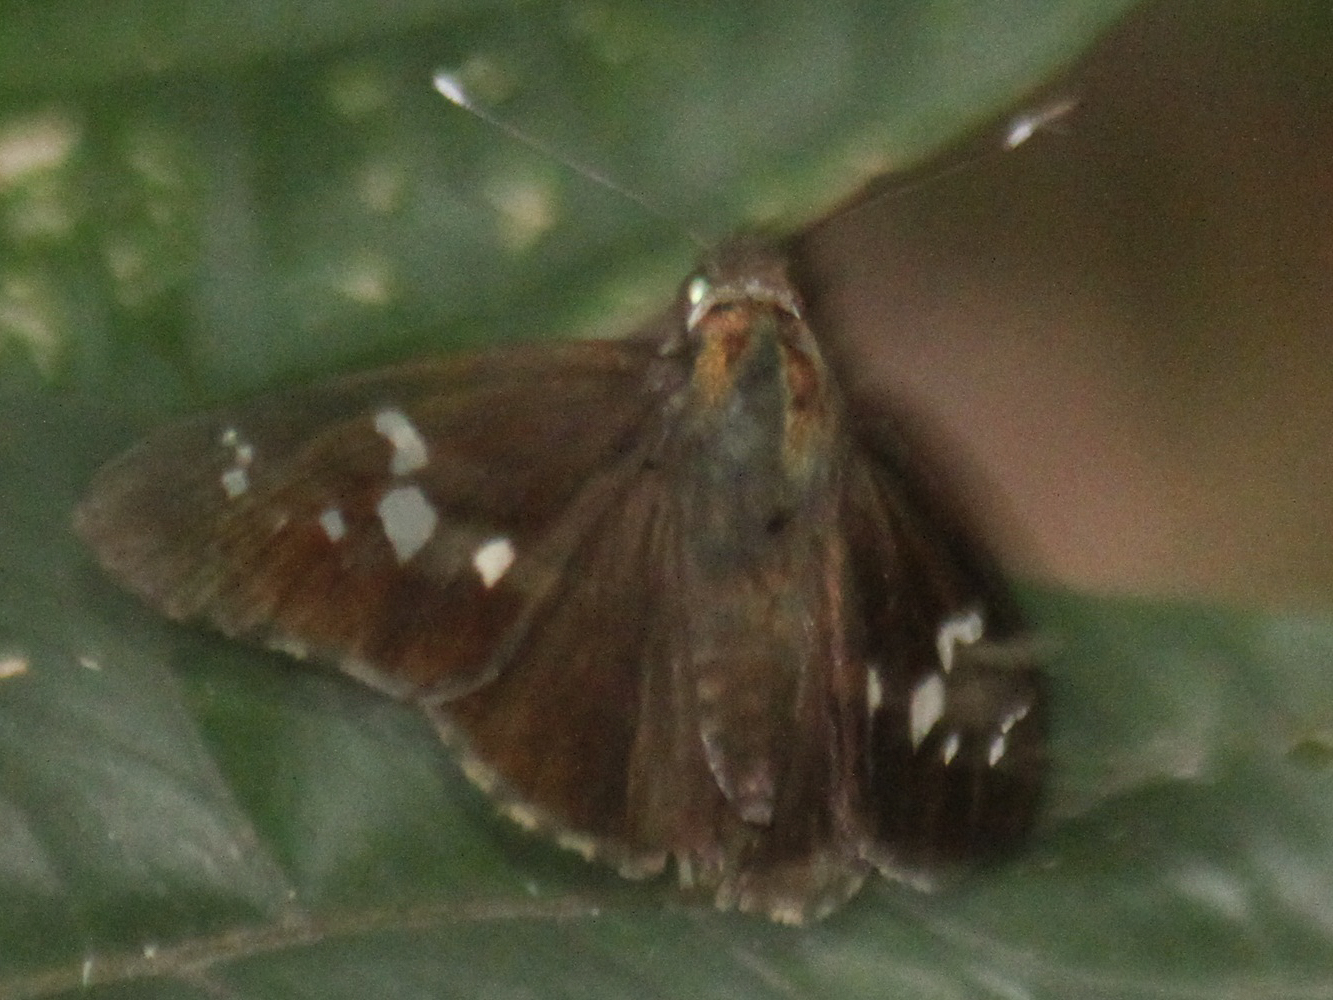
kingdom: Animalia
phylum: Arthropoda
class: Insecta
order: Lepidoptera
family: Hesperiidae
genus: Hyarotis
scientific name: Hyarotis adrastus
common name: Tree flitter
